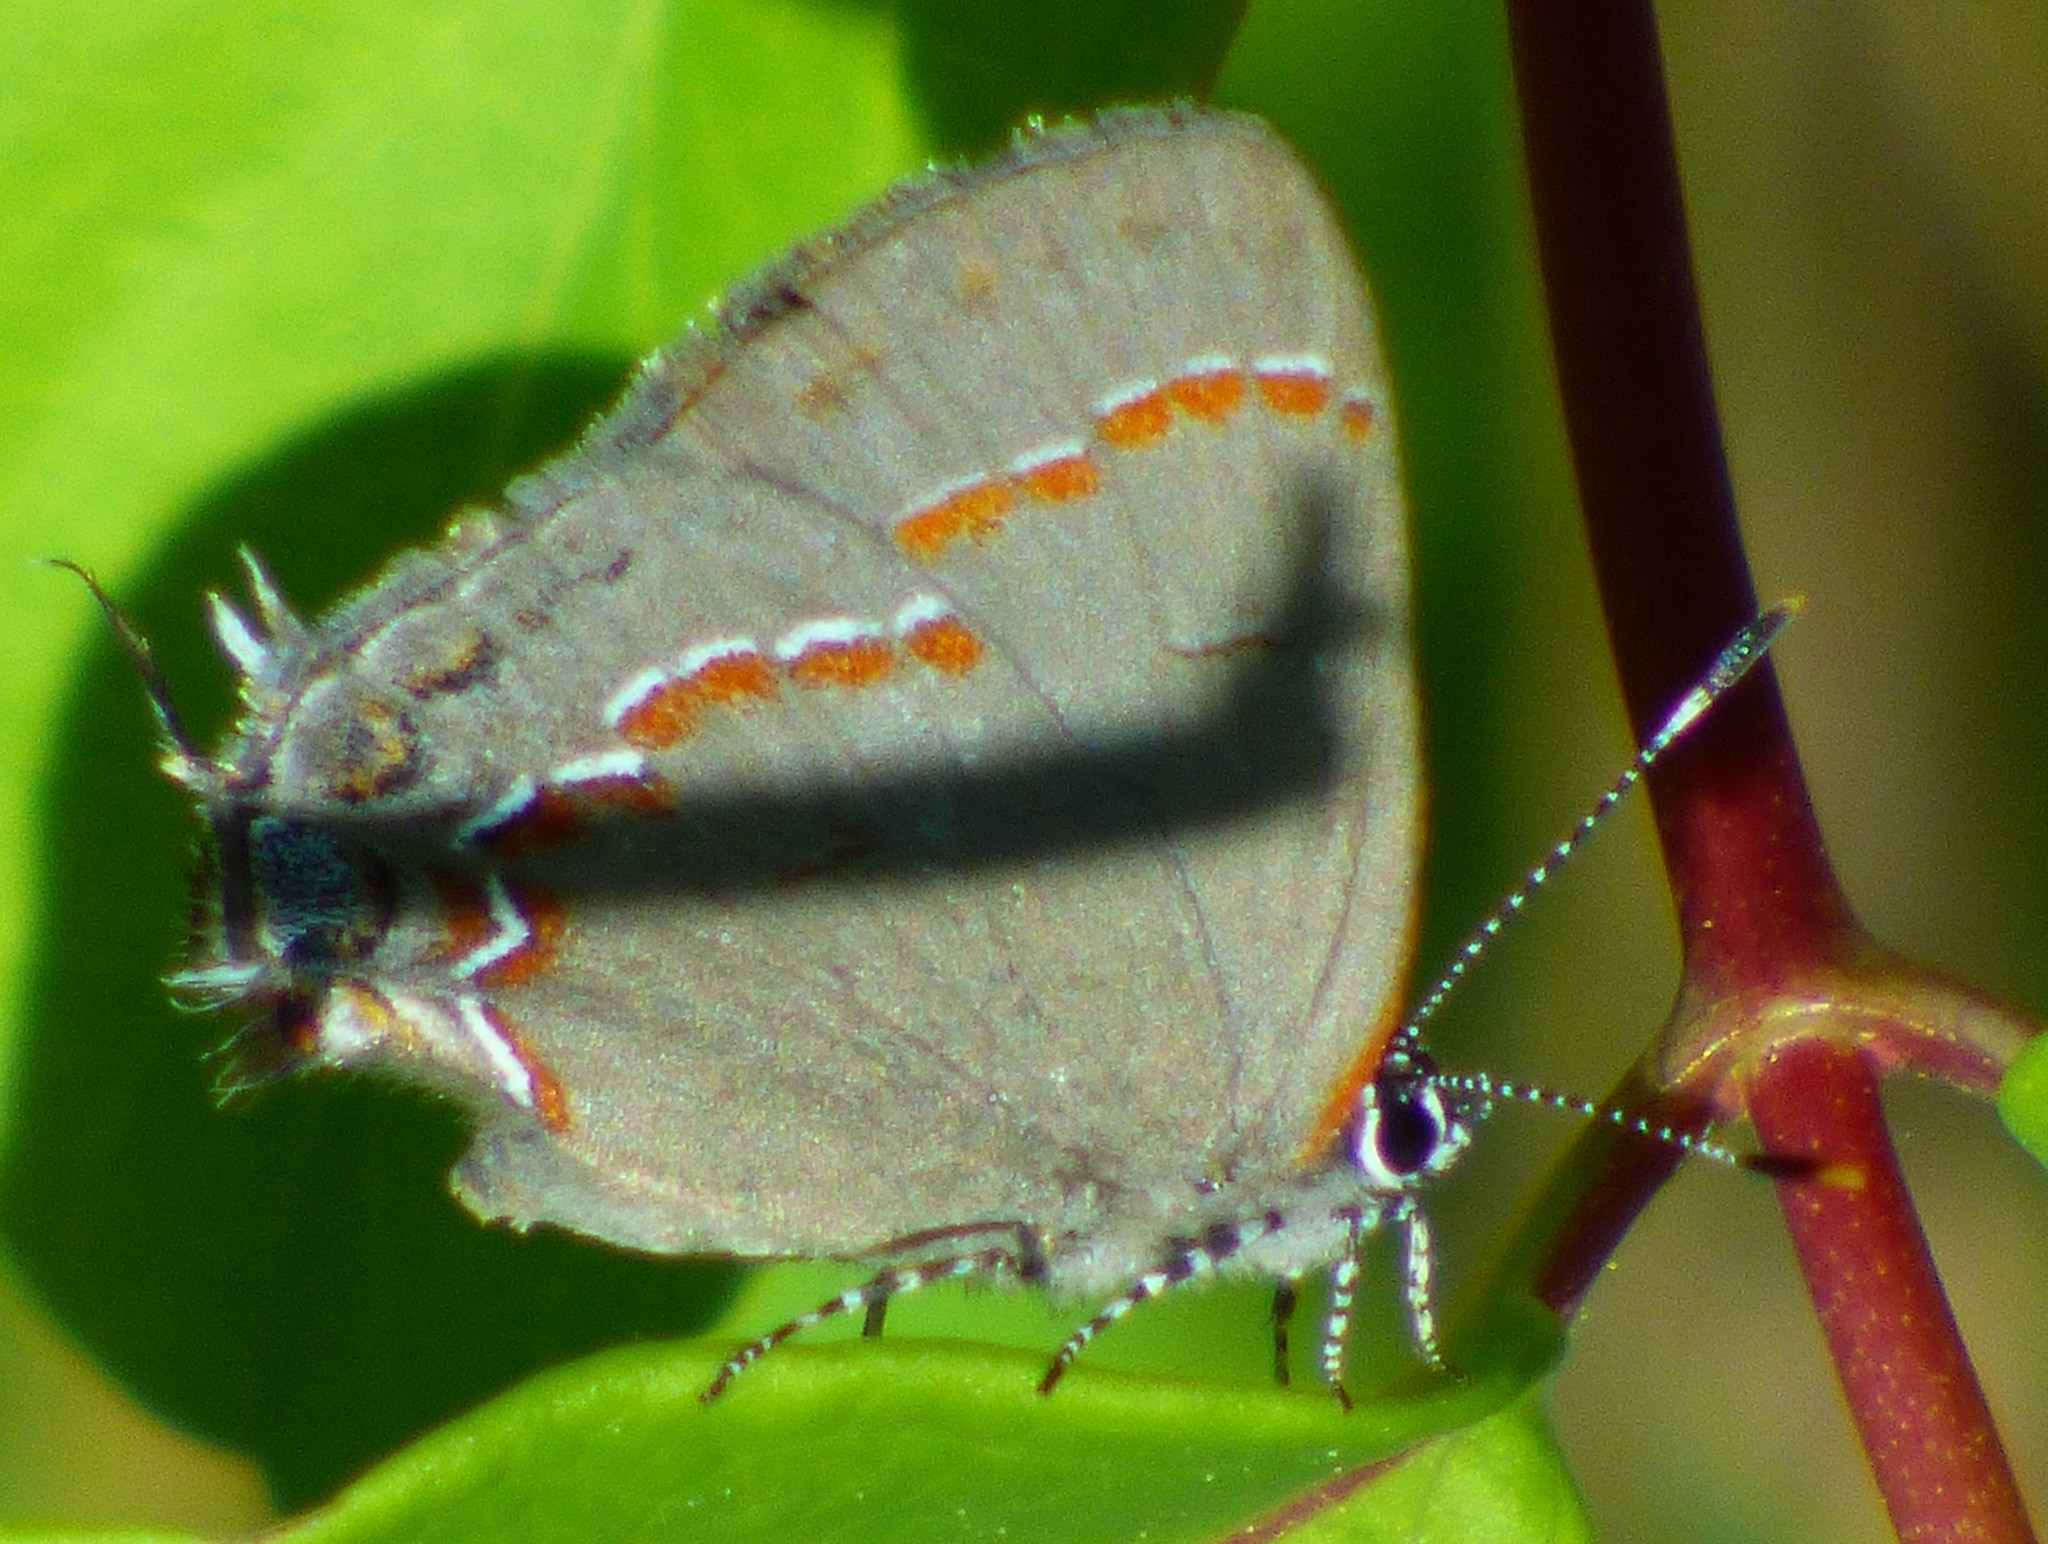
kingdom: Animalia
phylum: Arthropoda
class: Insecta
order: Lepidoptera
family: Lycaenidae
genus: Calycopis
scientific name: Calycopis cecrops
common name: Red-banded hairstreak
